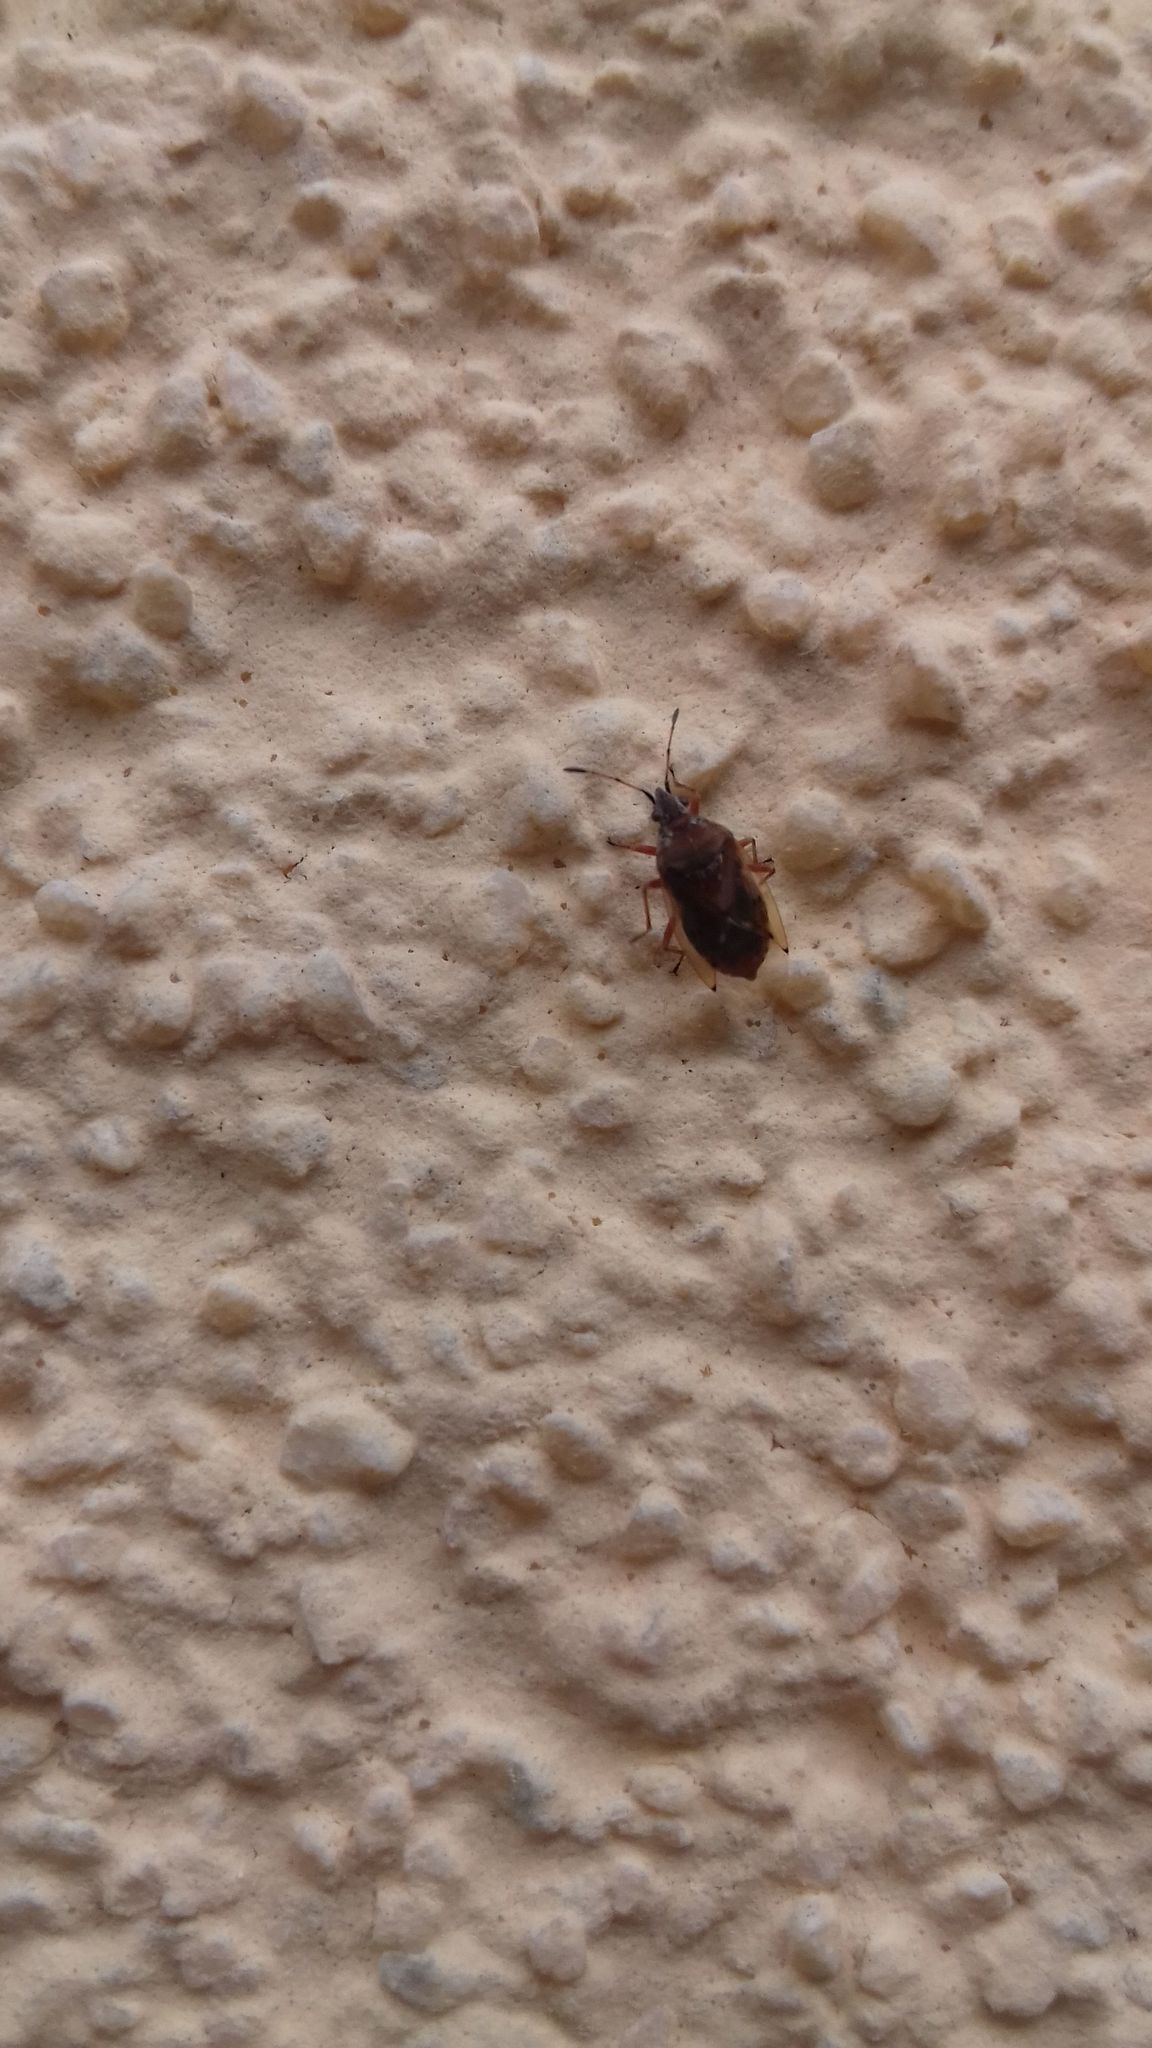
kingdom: Animalia
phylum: Arthropoda
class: Insecta
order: Hemiptera
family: Lygaeidae
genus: Kleidocerys
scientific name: Kleidocerys resedae
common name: Birch catkin bug
